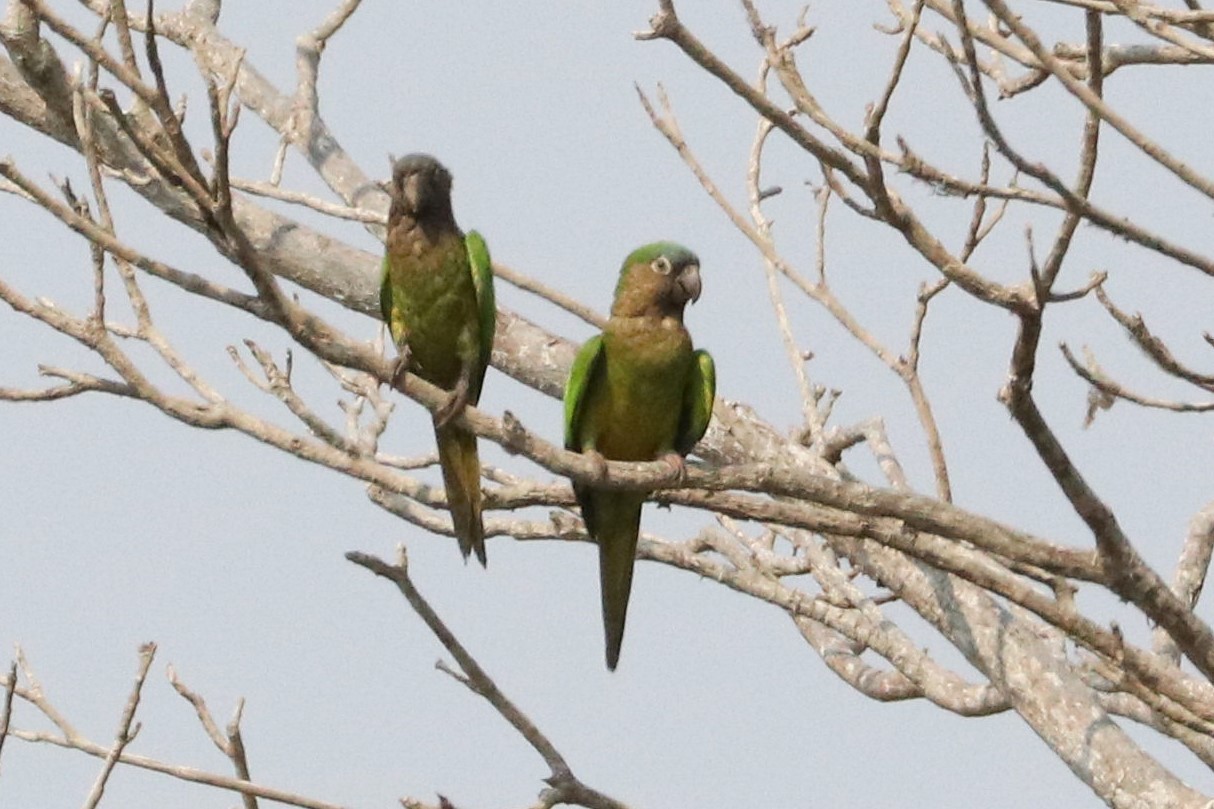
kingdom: Animalia
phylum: Chordata
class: Aves
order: Psittaciformes
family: Psittacidae
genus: Aratinga
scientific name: Aratinga pertinax
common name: Brown-throated parakeet
